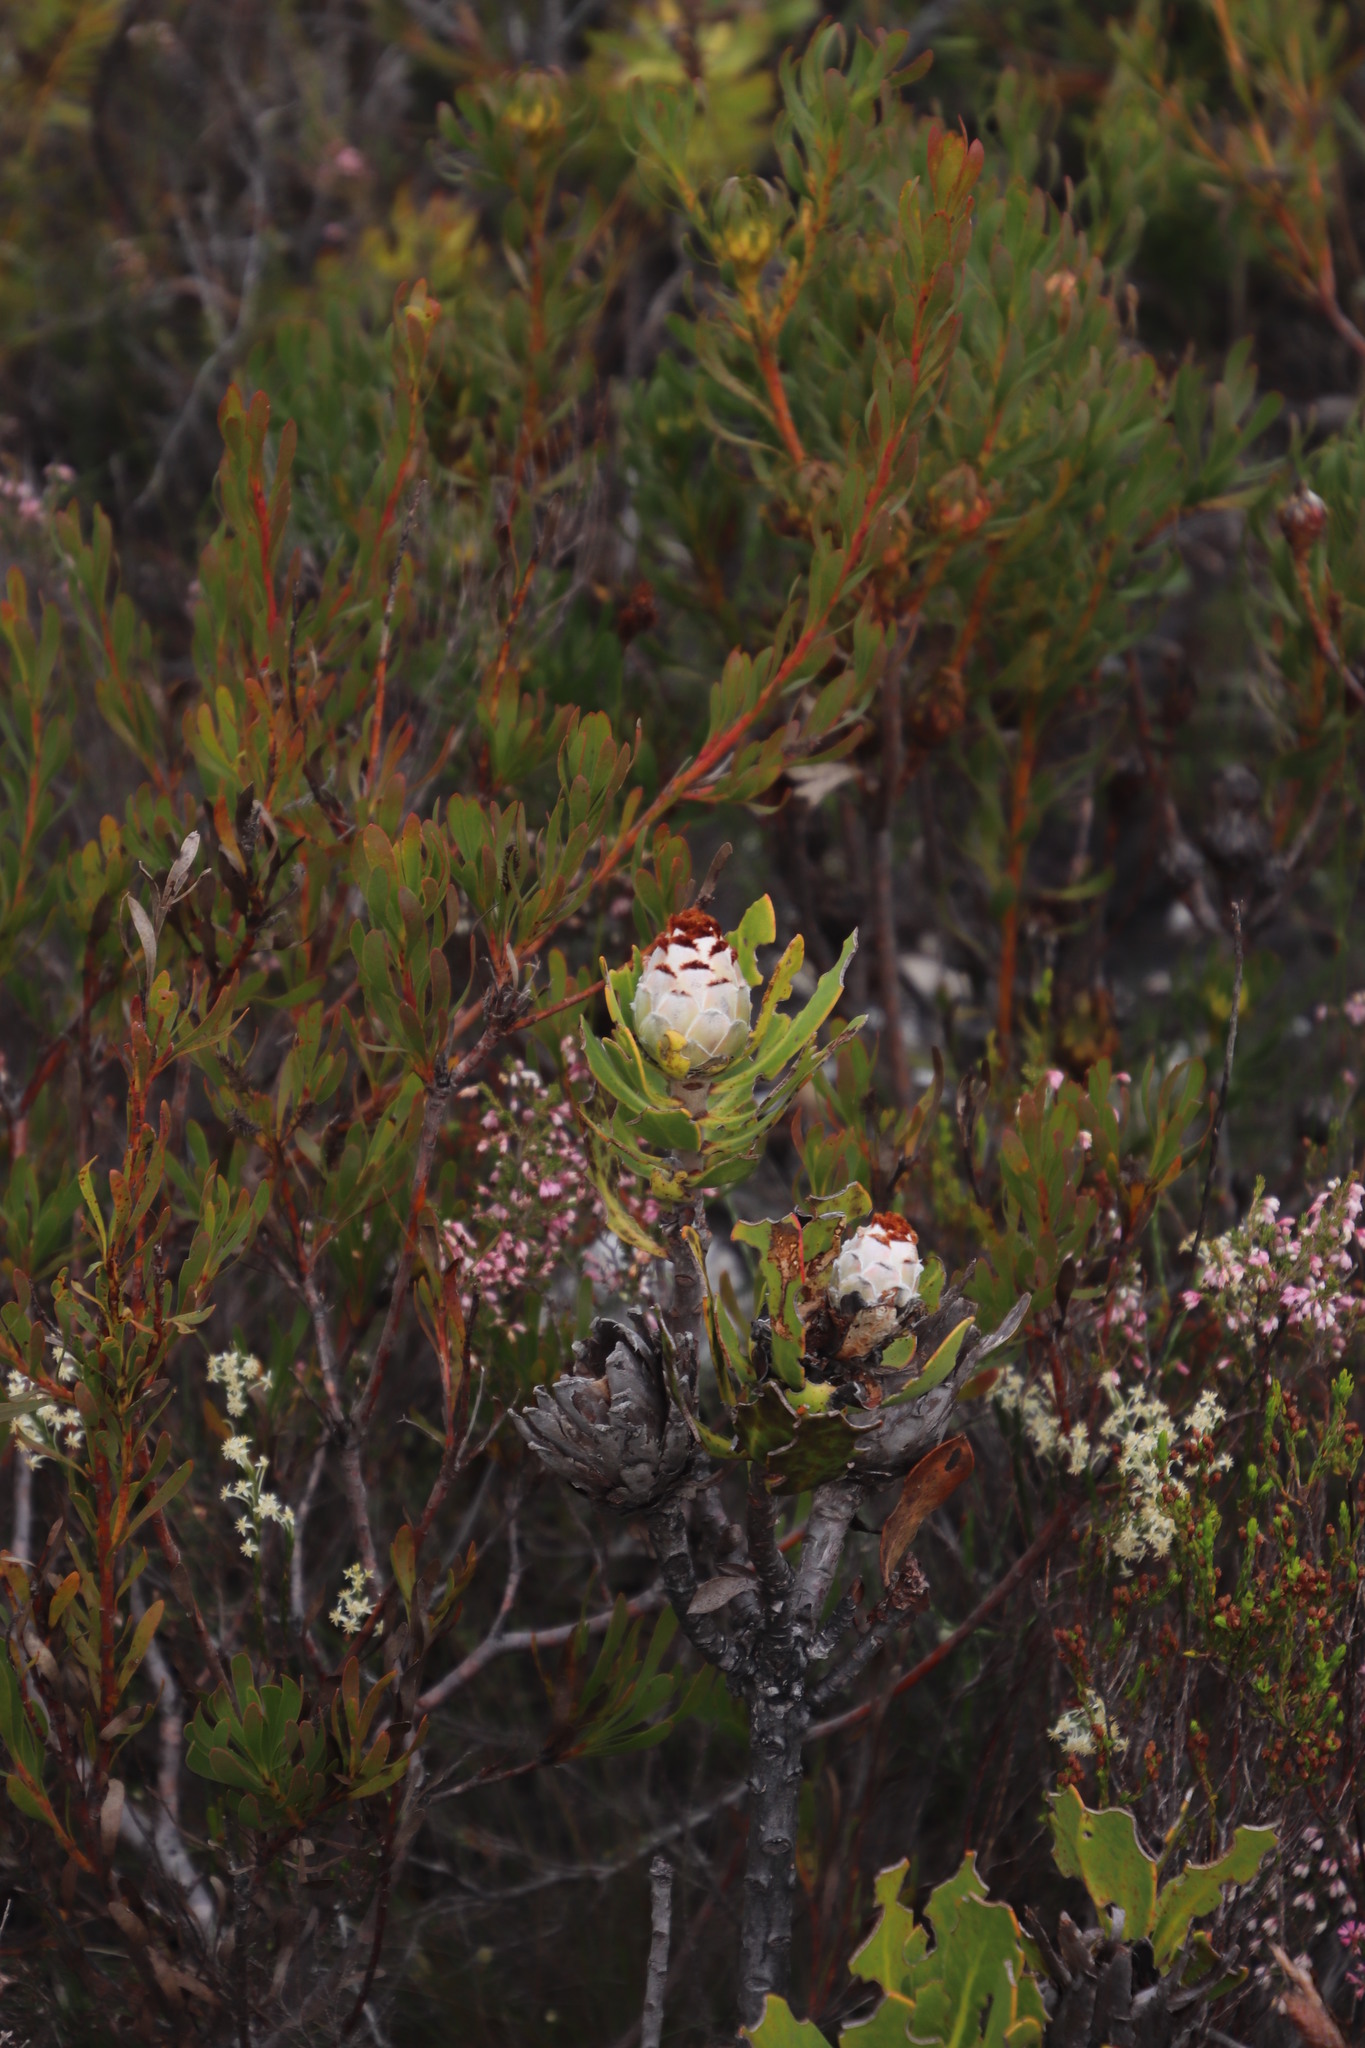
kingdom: Plantae
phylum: Tracheophyta
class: Magnoliopsida
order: Proteales
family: Proteaceae
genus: Protea
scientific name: Protea speciosa
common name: Brown-beard sugarbush
